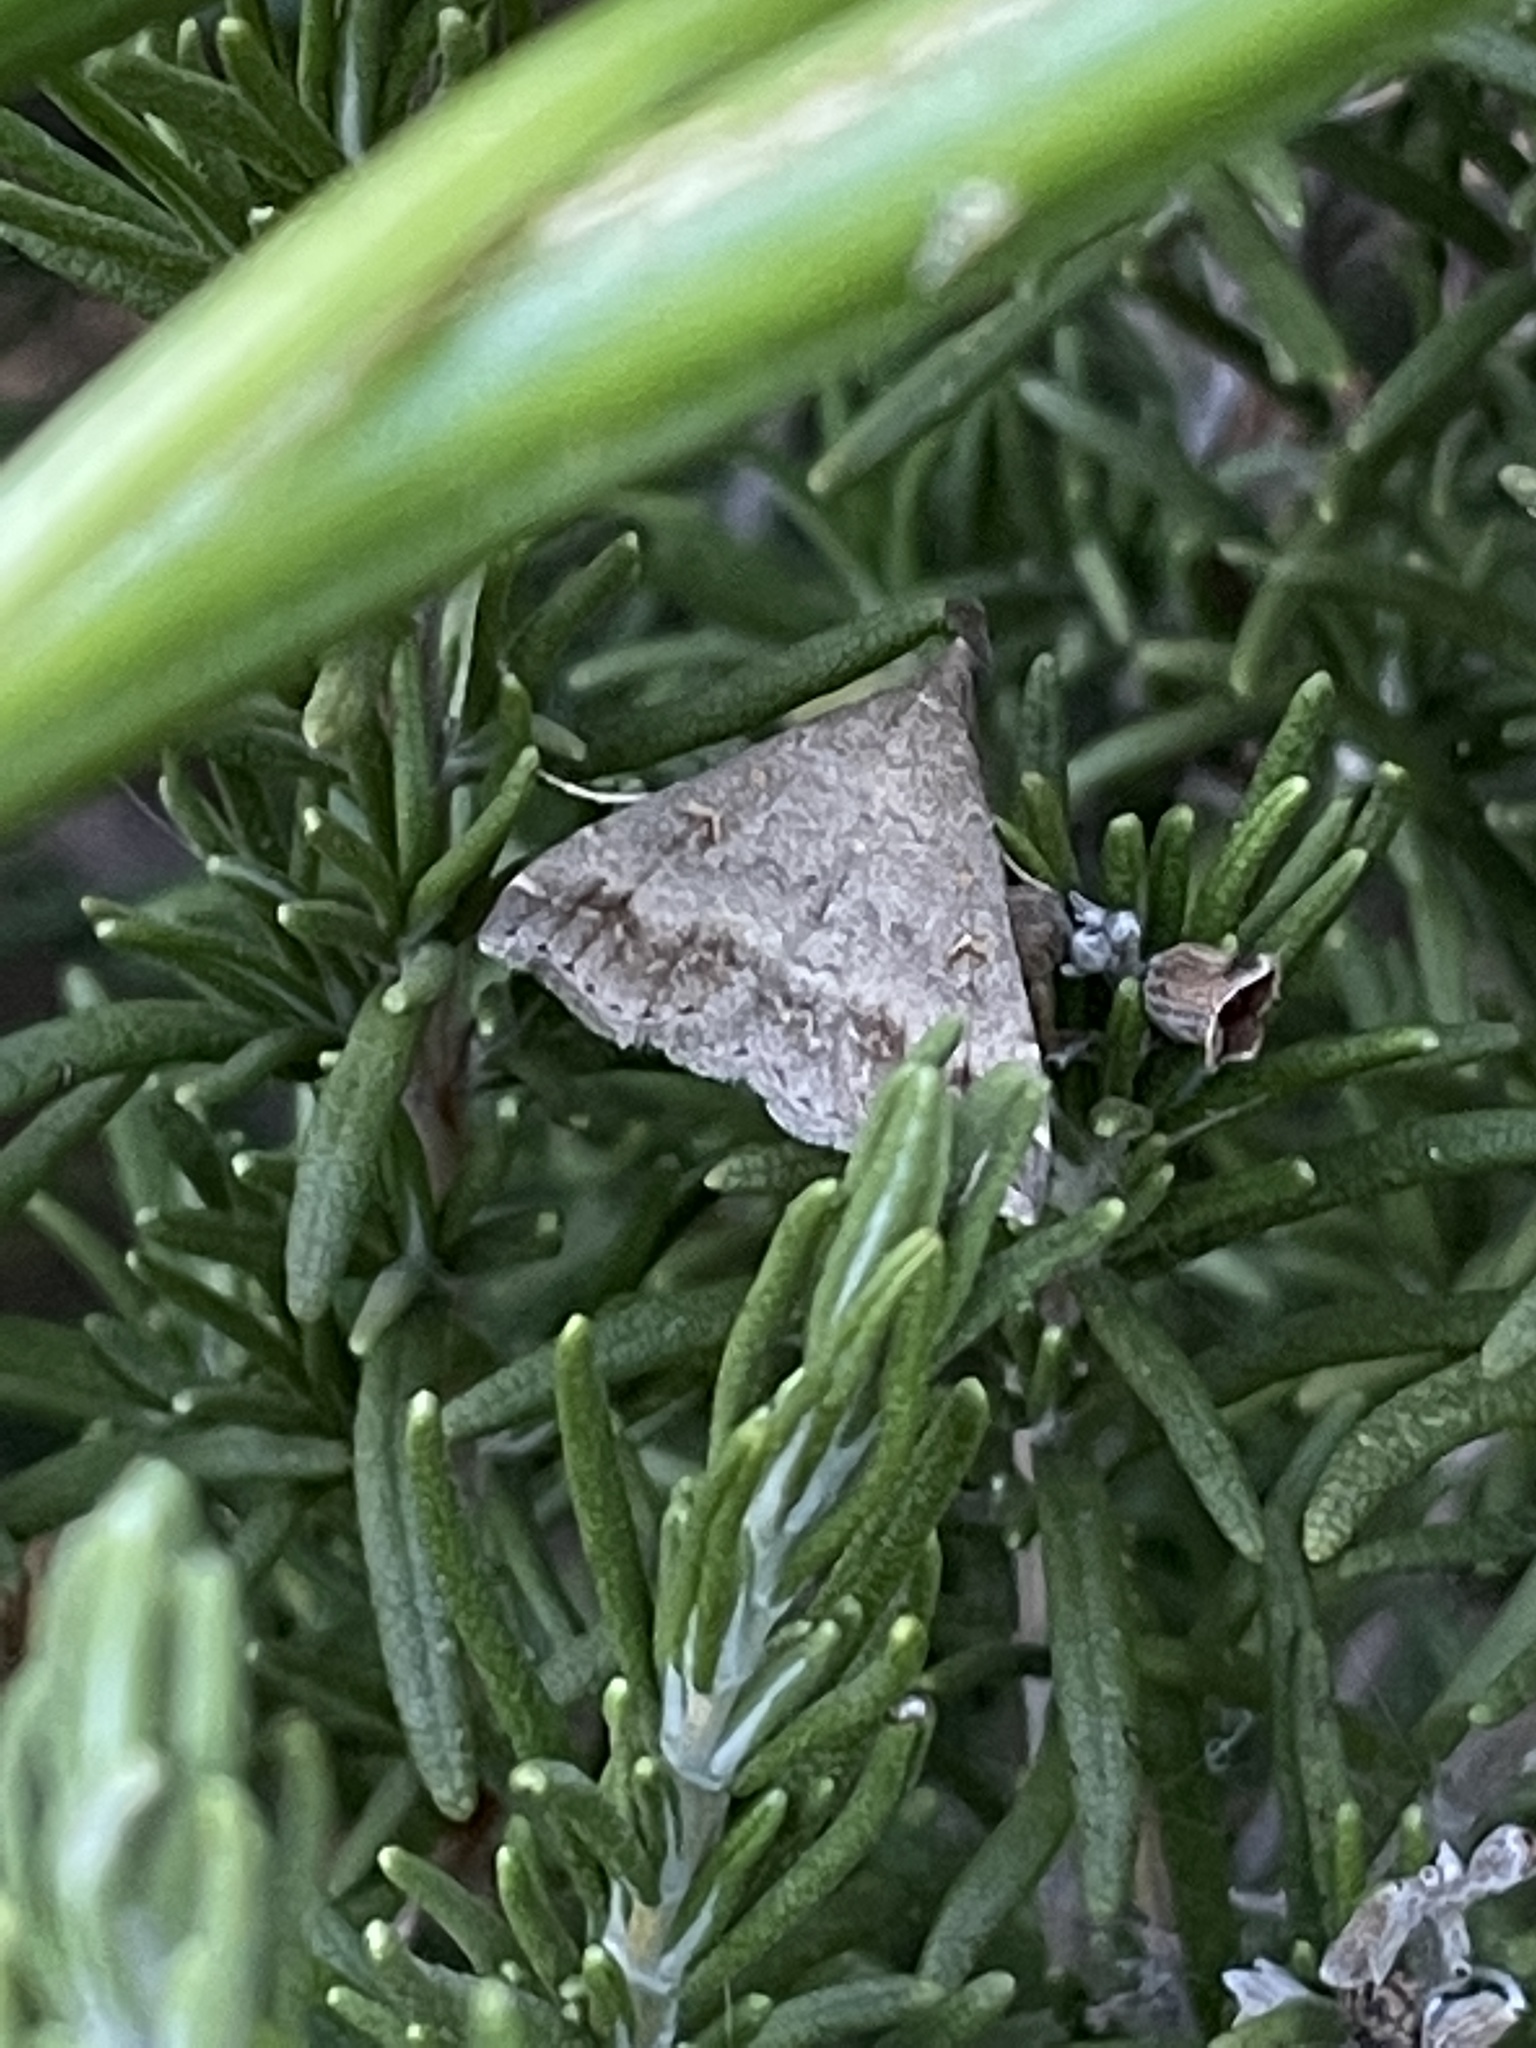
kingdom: Animalia
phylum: Arthropoda
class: Insecta
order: Lepidoptera
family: Erebidae
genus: Tetanolita
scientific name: Tetanolita palligera
